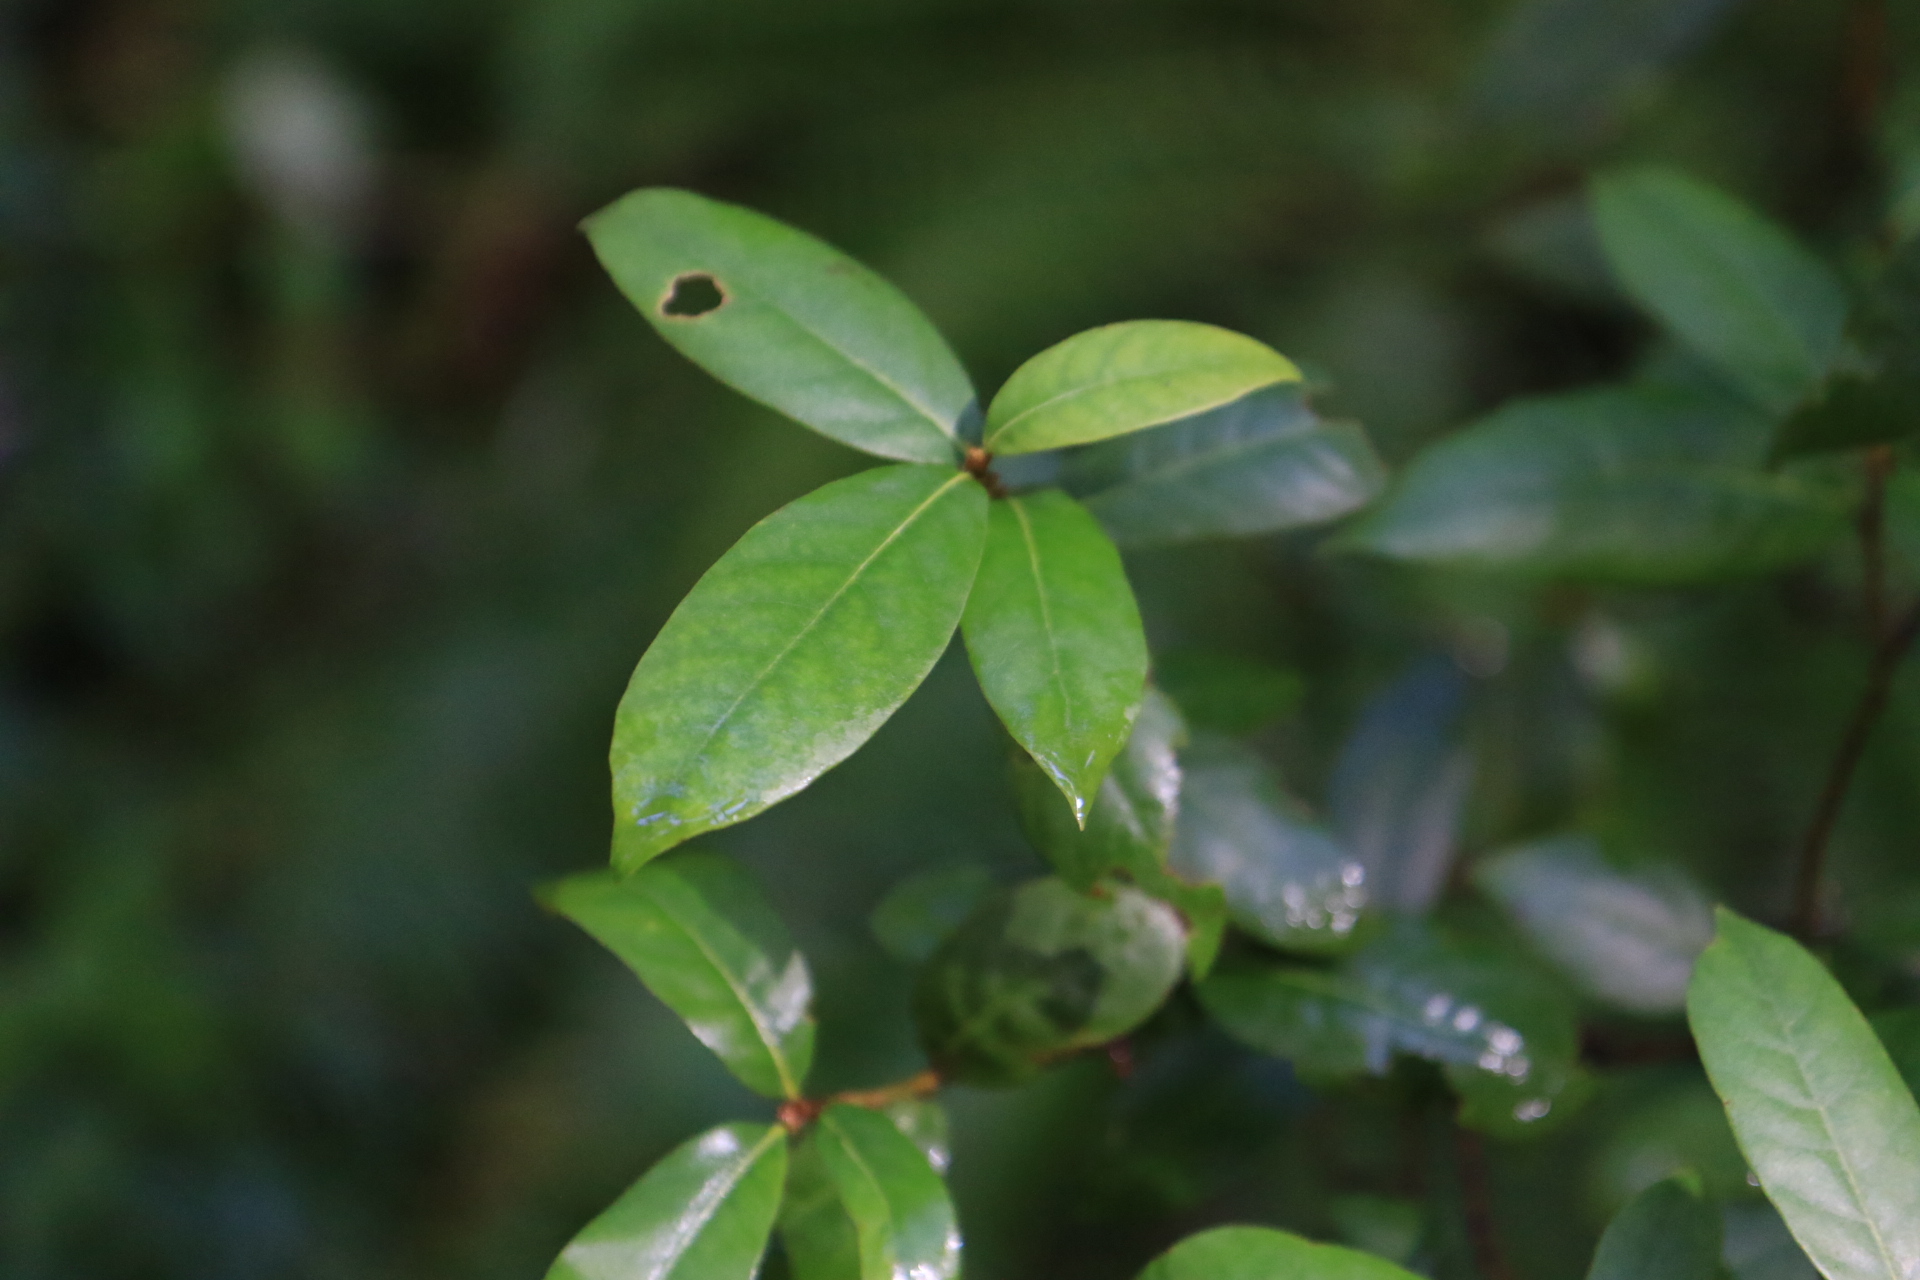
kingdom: Plantae
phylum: Tracheophyta
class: Magnoliopsida
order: Fagales
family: Fagaceae
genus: Chrysolepis
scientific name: Chrysolepis chrysophylla
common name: Giant chinquapin
